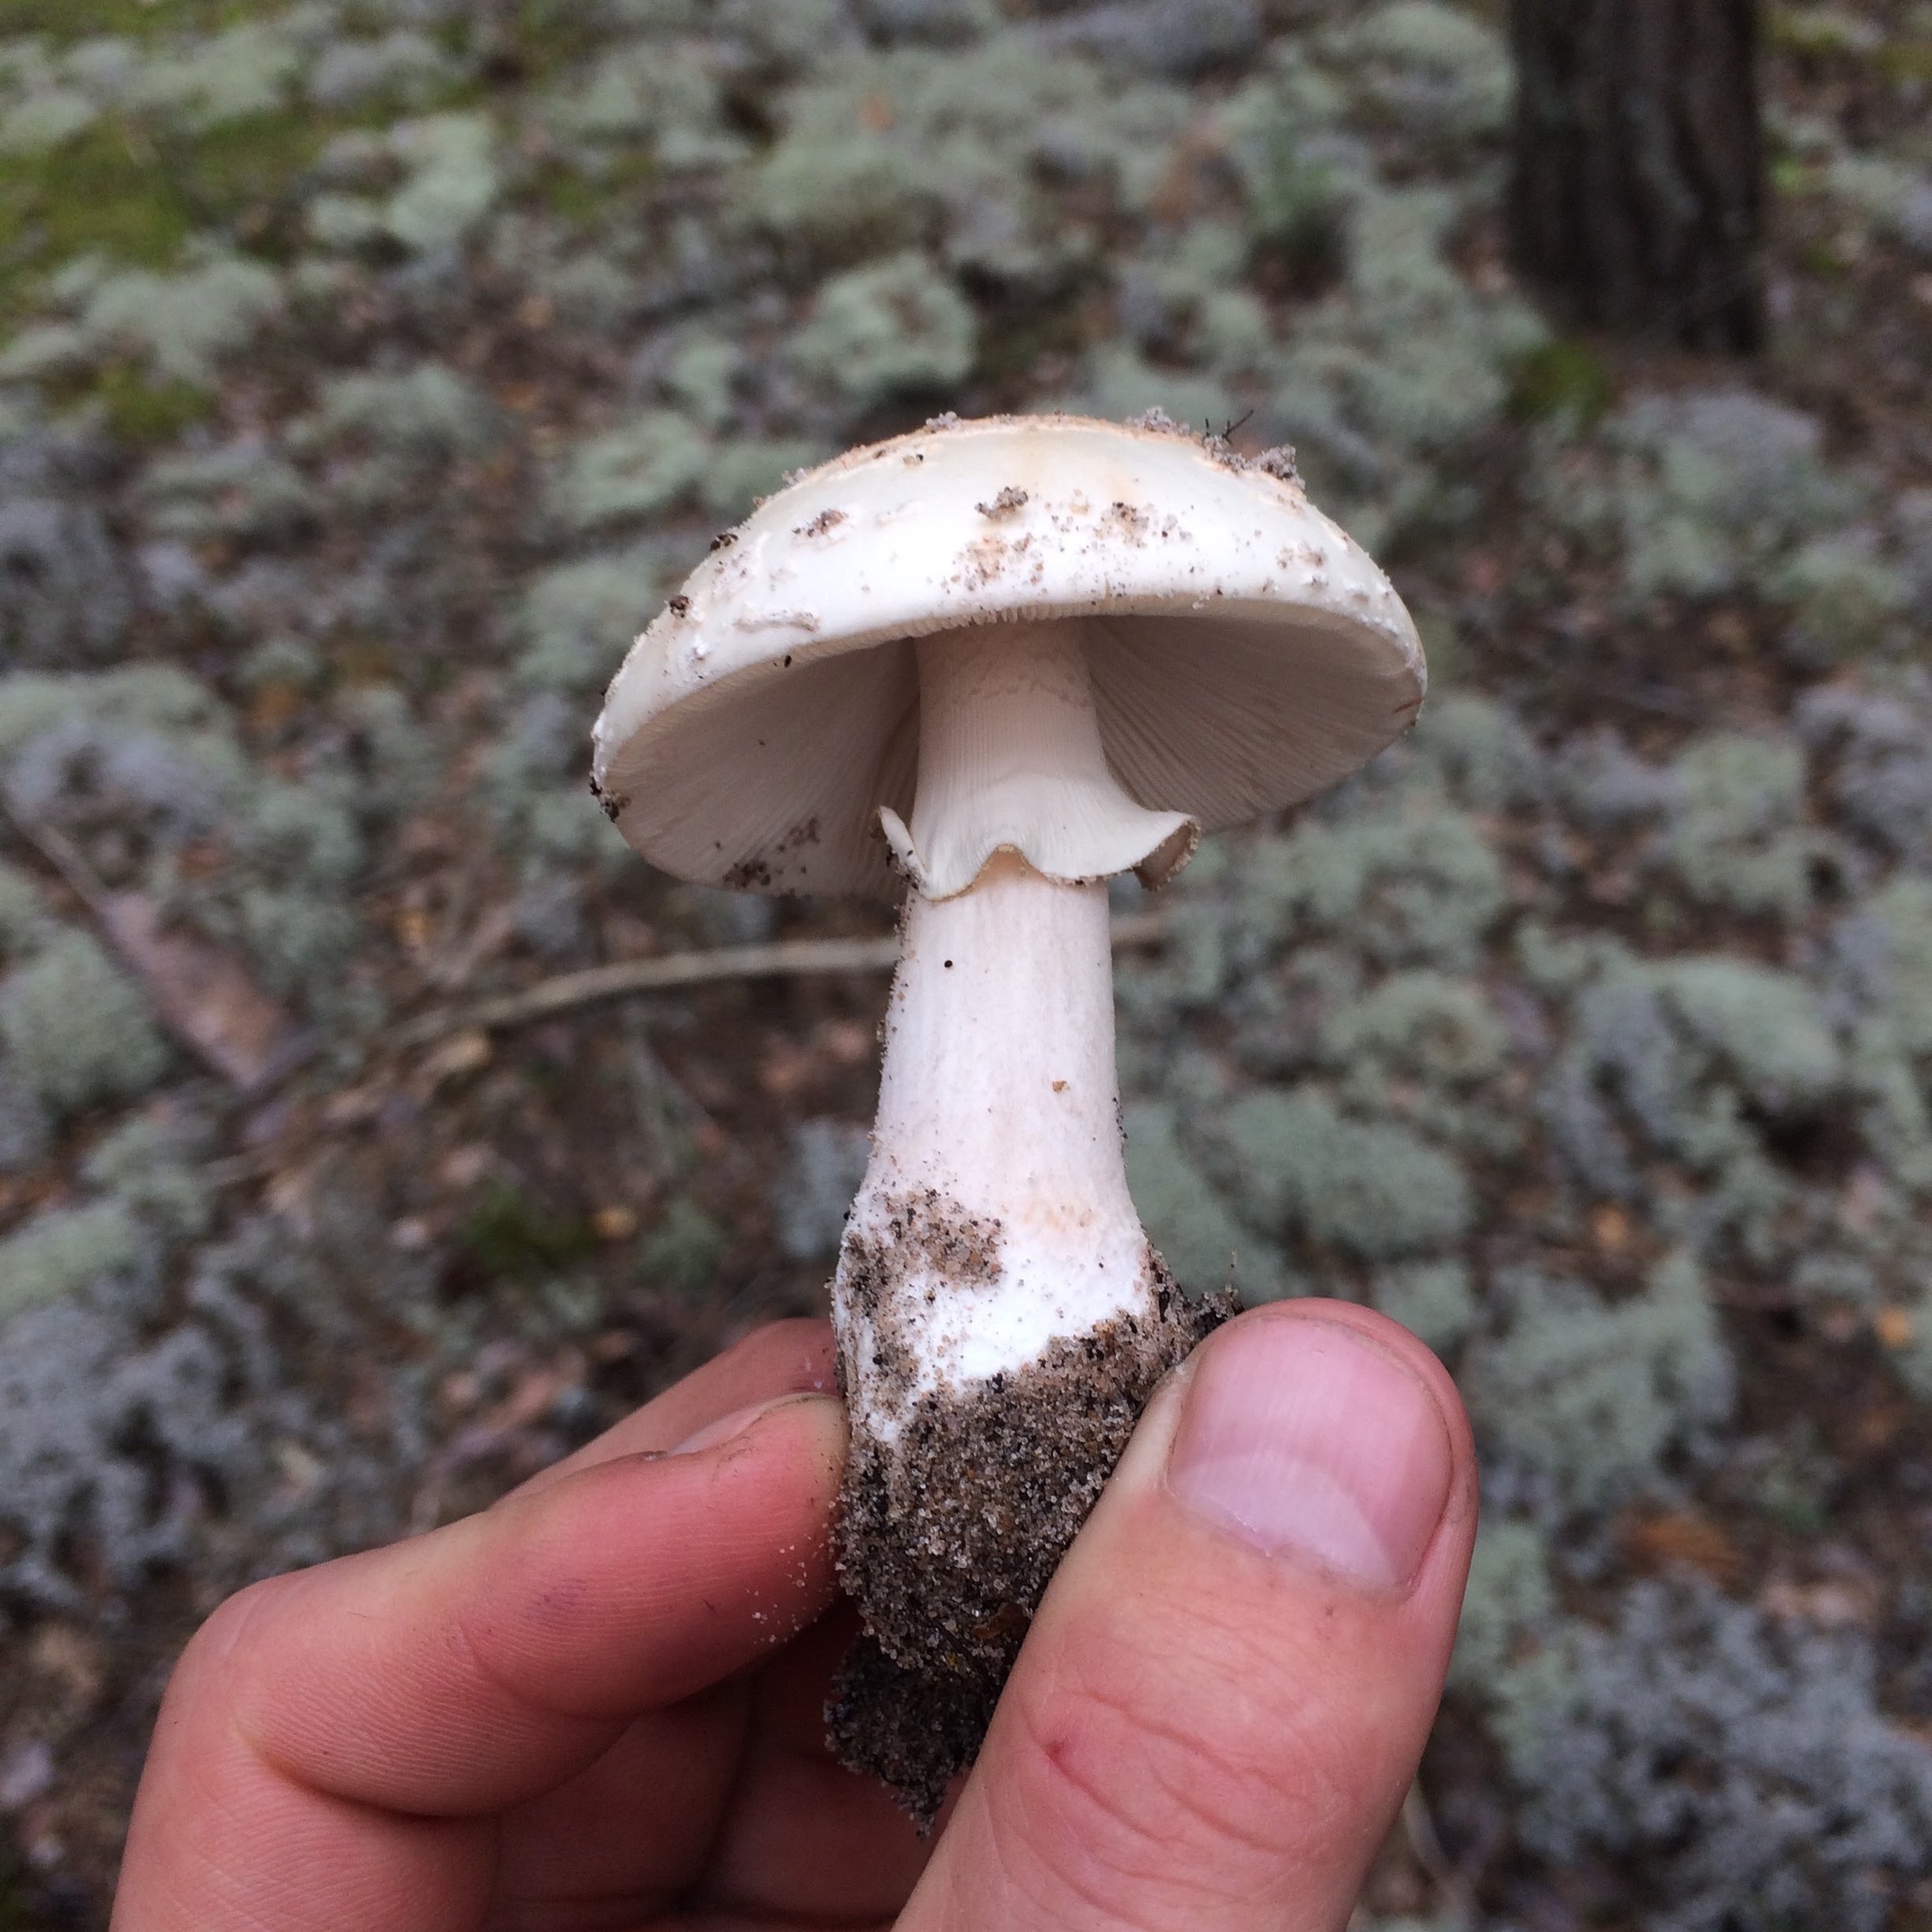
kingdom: Fungi
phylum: Basidiomycota
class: Agaricomycetes
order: Agaricales
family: Amanitaceae
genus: Amanita
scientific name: Amanita rubescens
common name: Blusher
